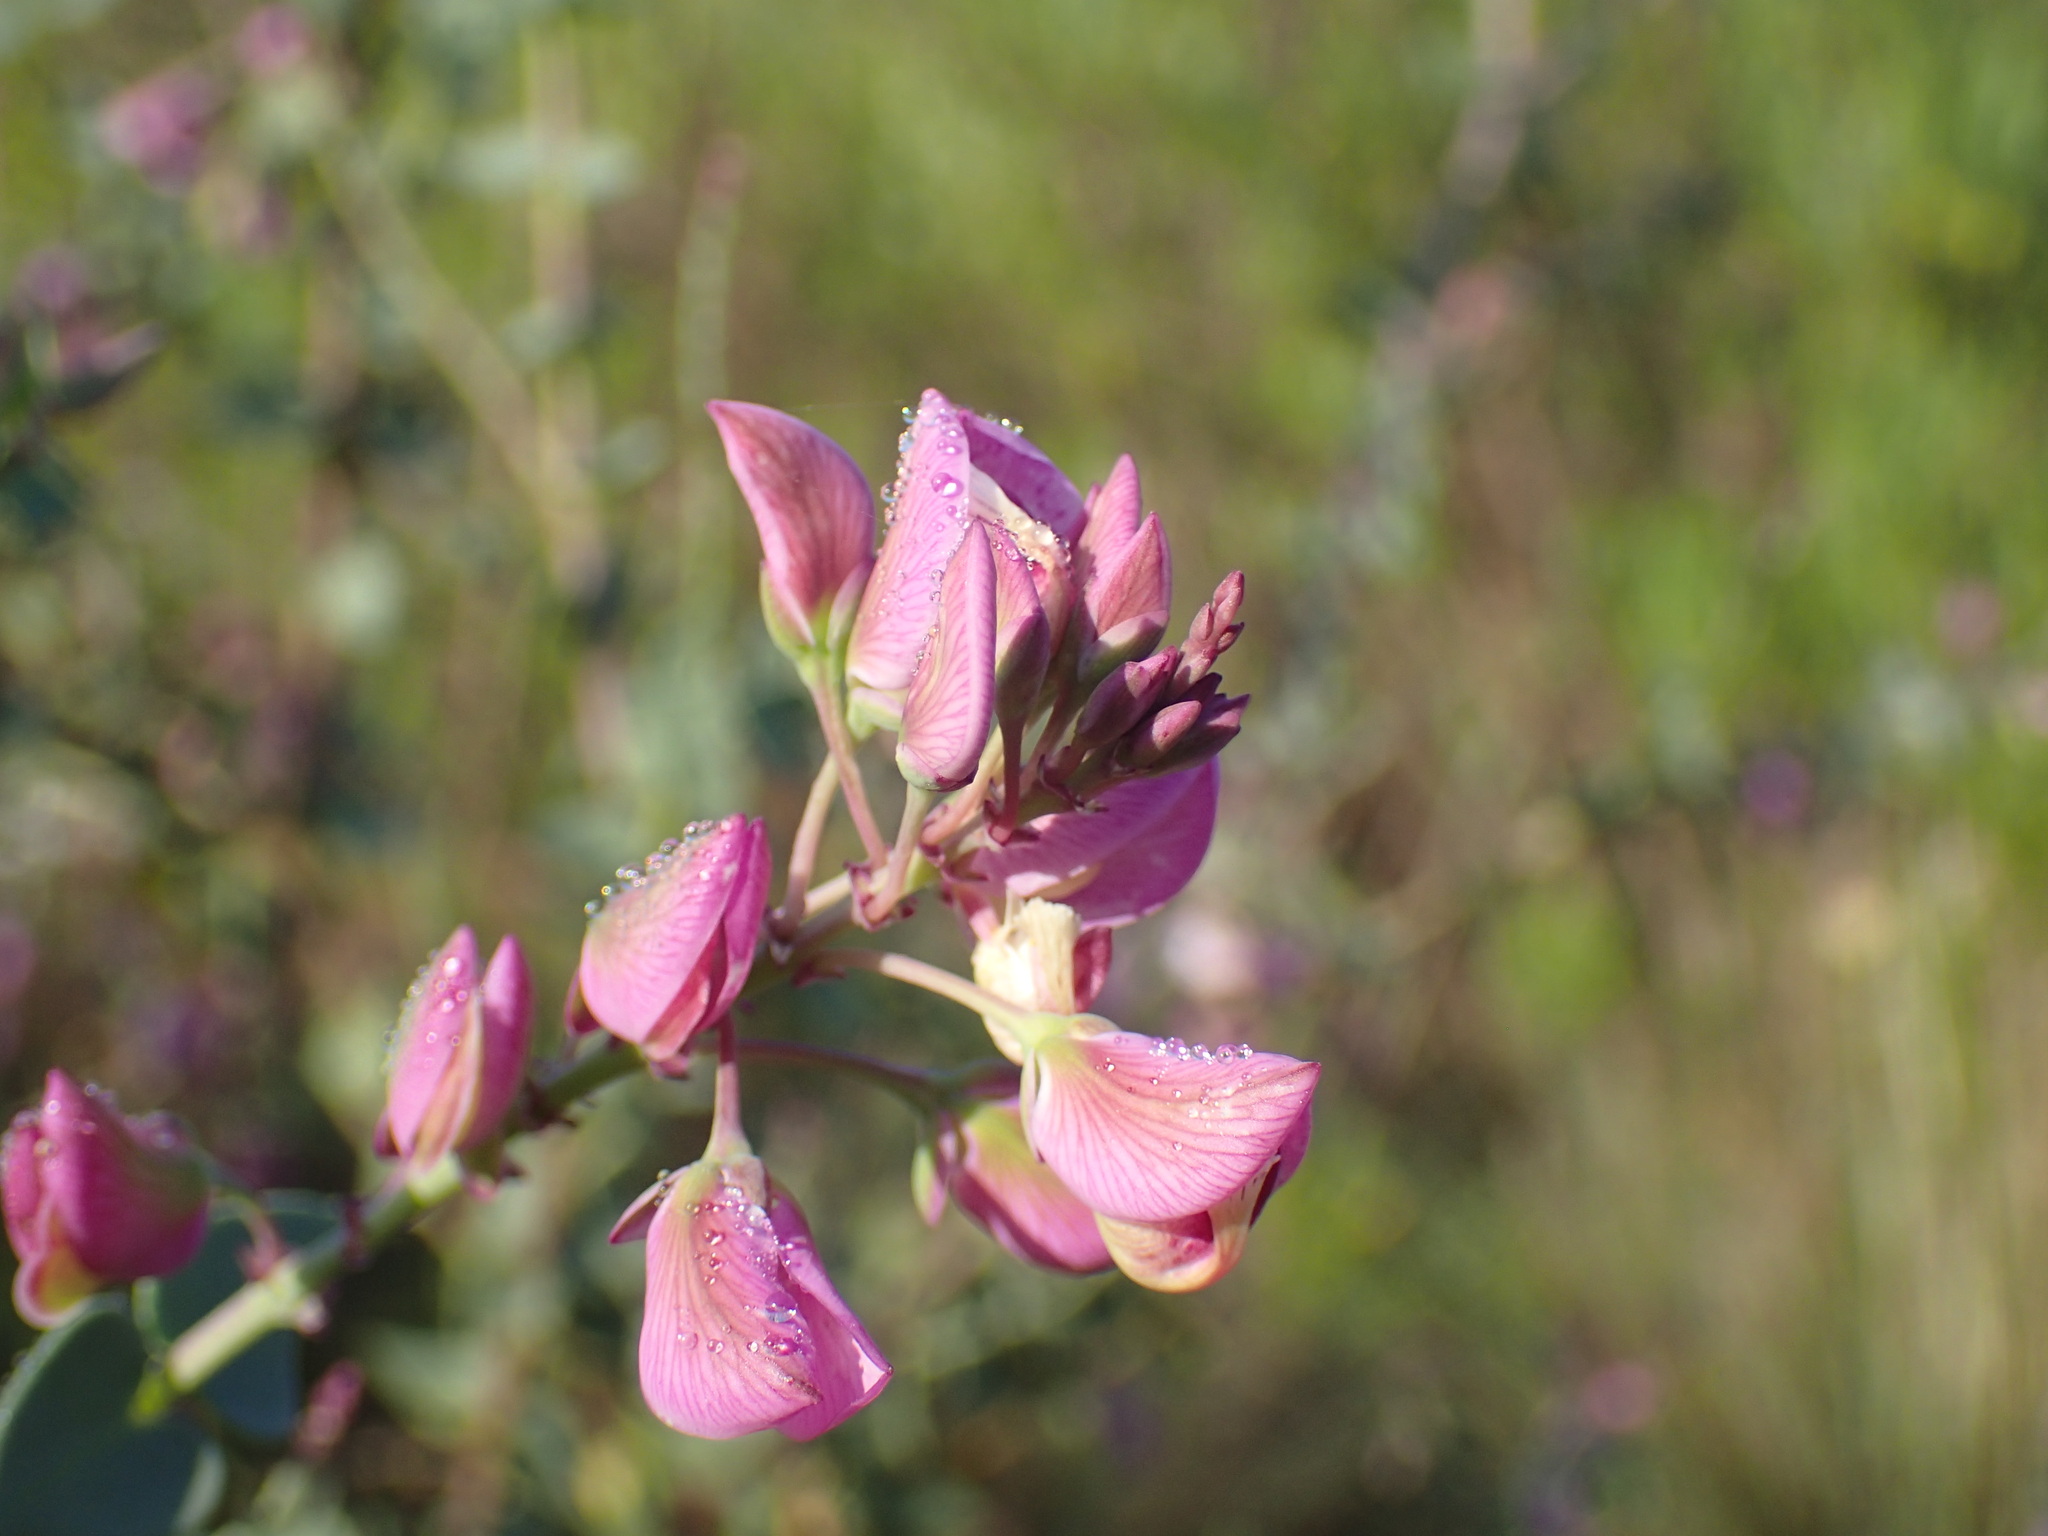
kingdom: Plantae
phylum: Tracheophyta
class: Magnoliopsida
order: Fabales
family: Polygalaceae
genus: Polygala
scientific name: Polygala fruticosa
